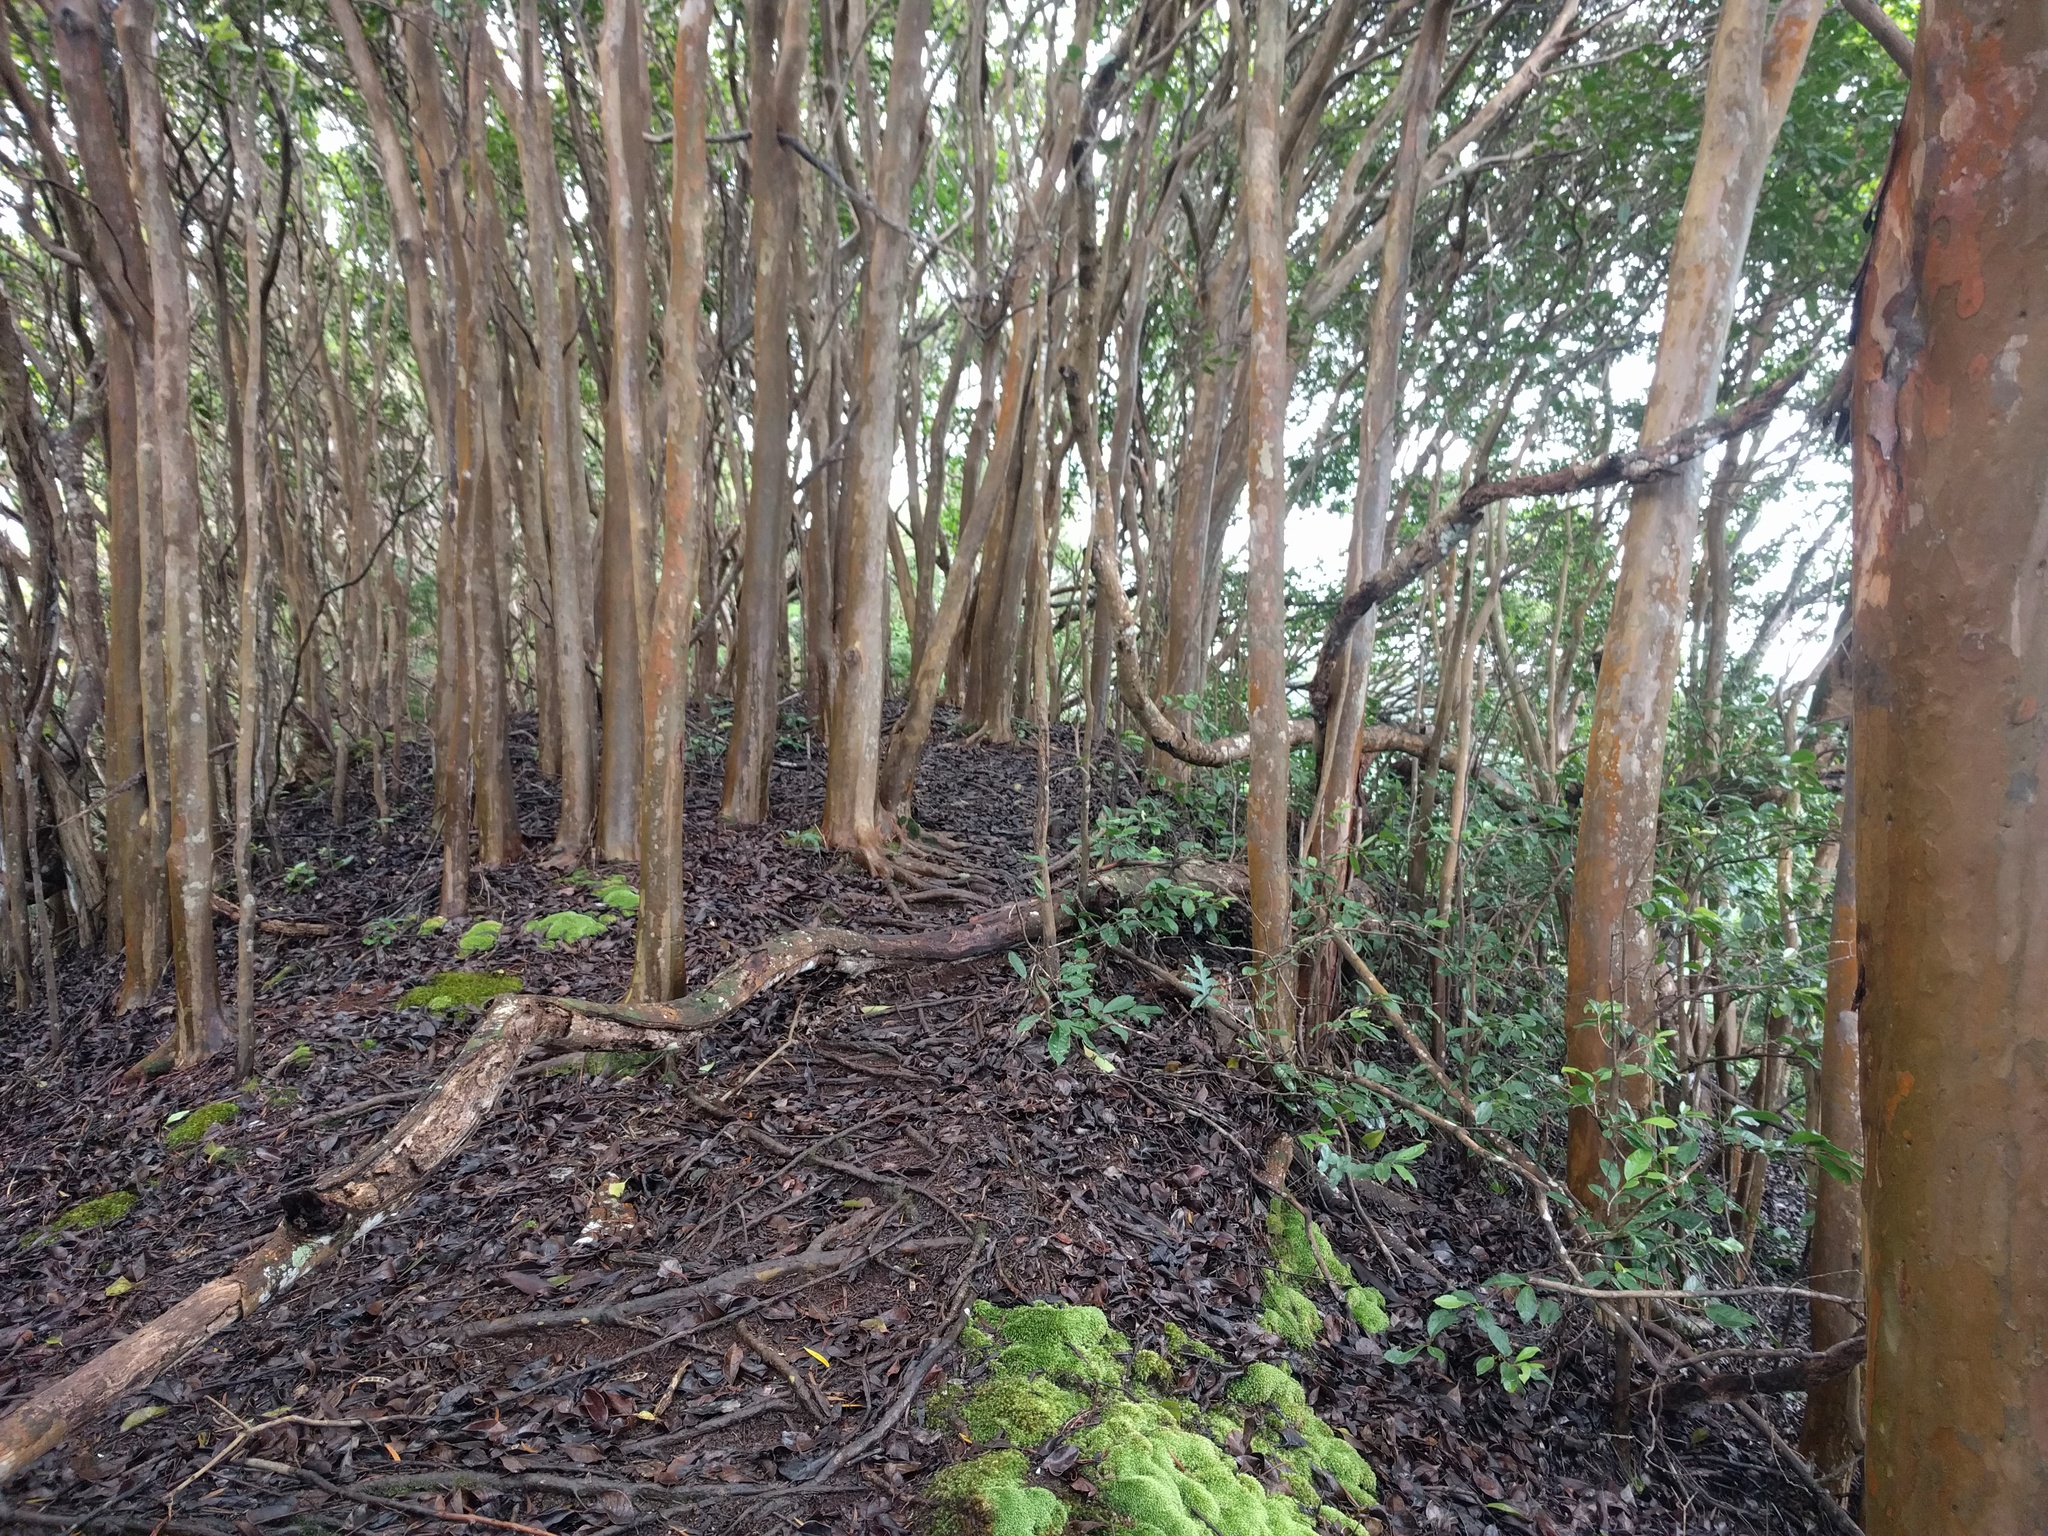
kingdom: Plantae
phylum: Tracheophyta
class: Magnoliopsida
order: Myrtales
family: Myrtaceae
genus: Psidium
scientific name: Psidium cattleianum
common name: Strawberry guava
